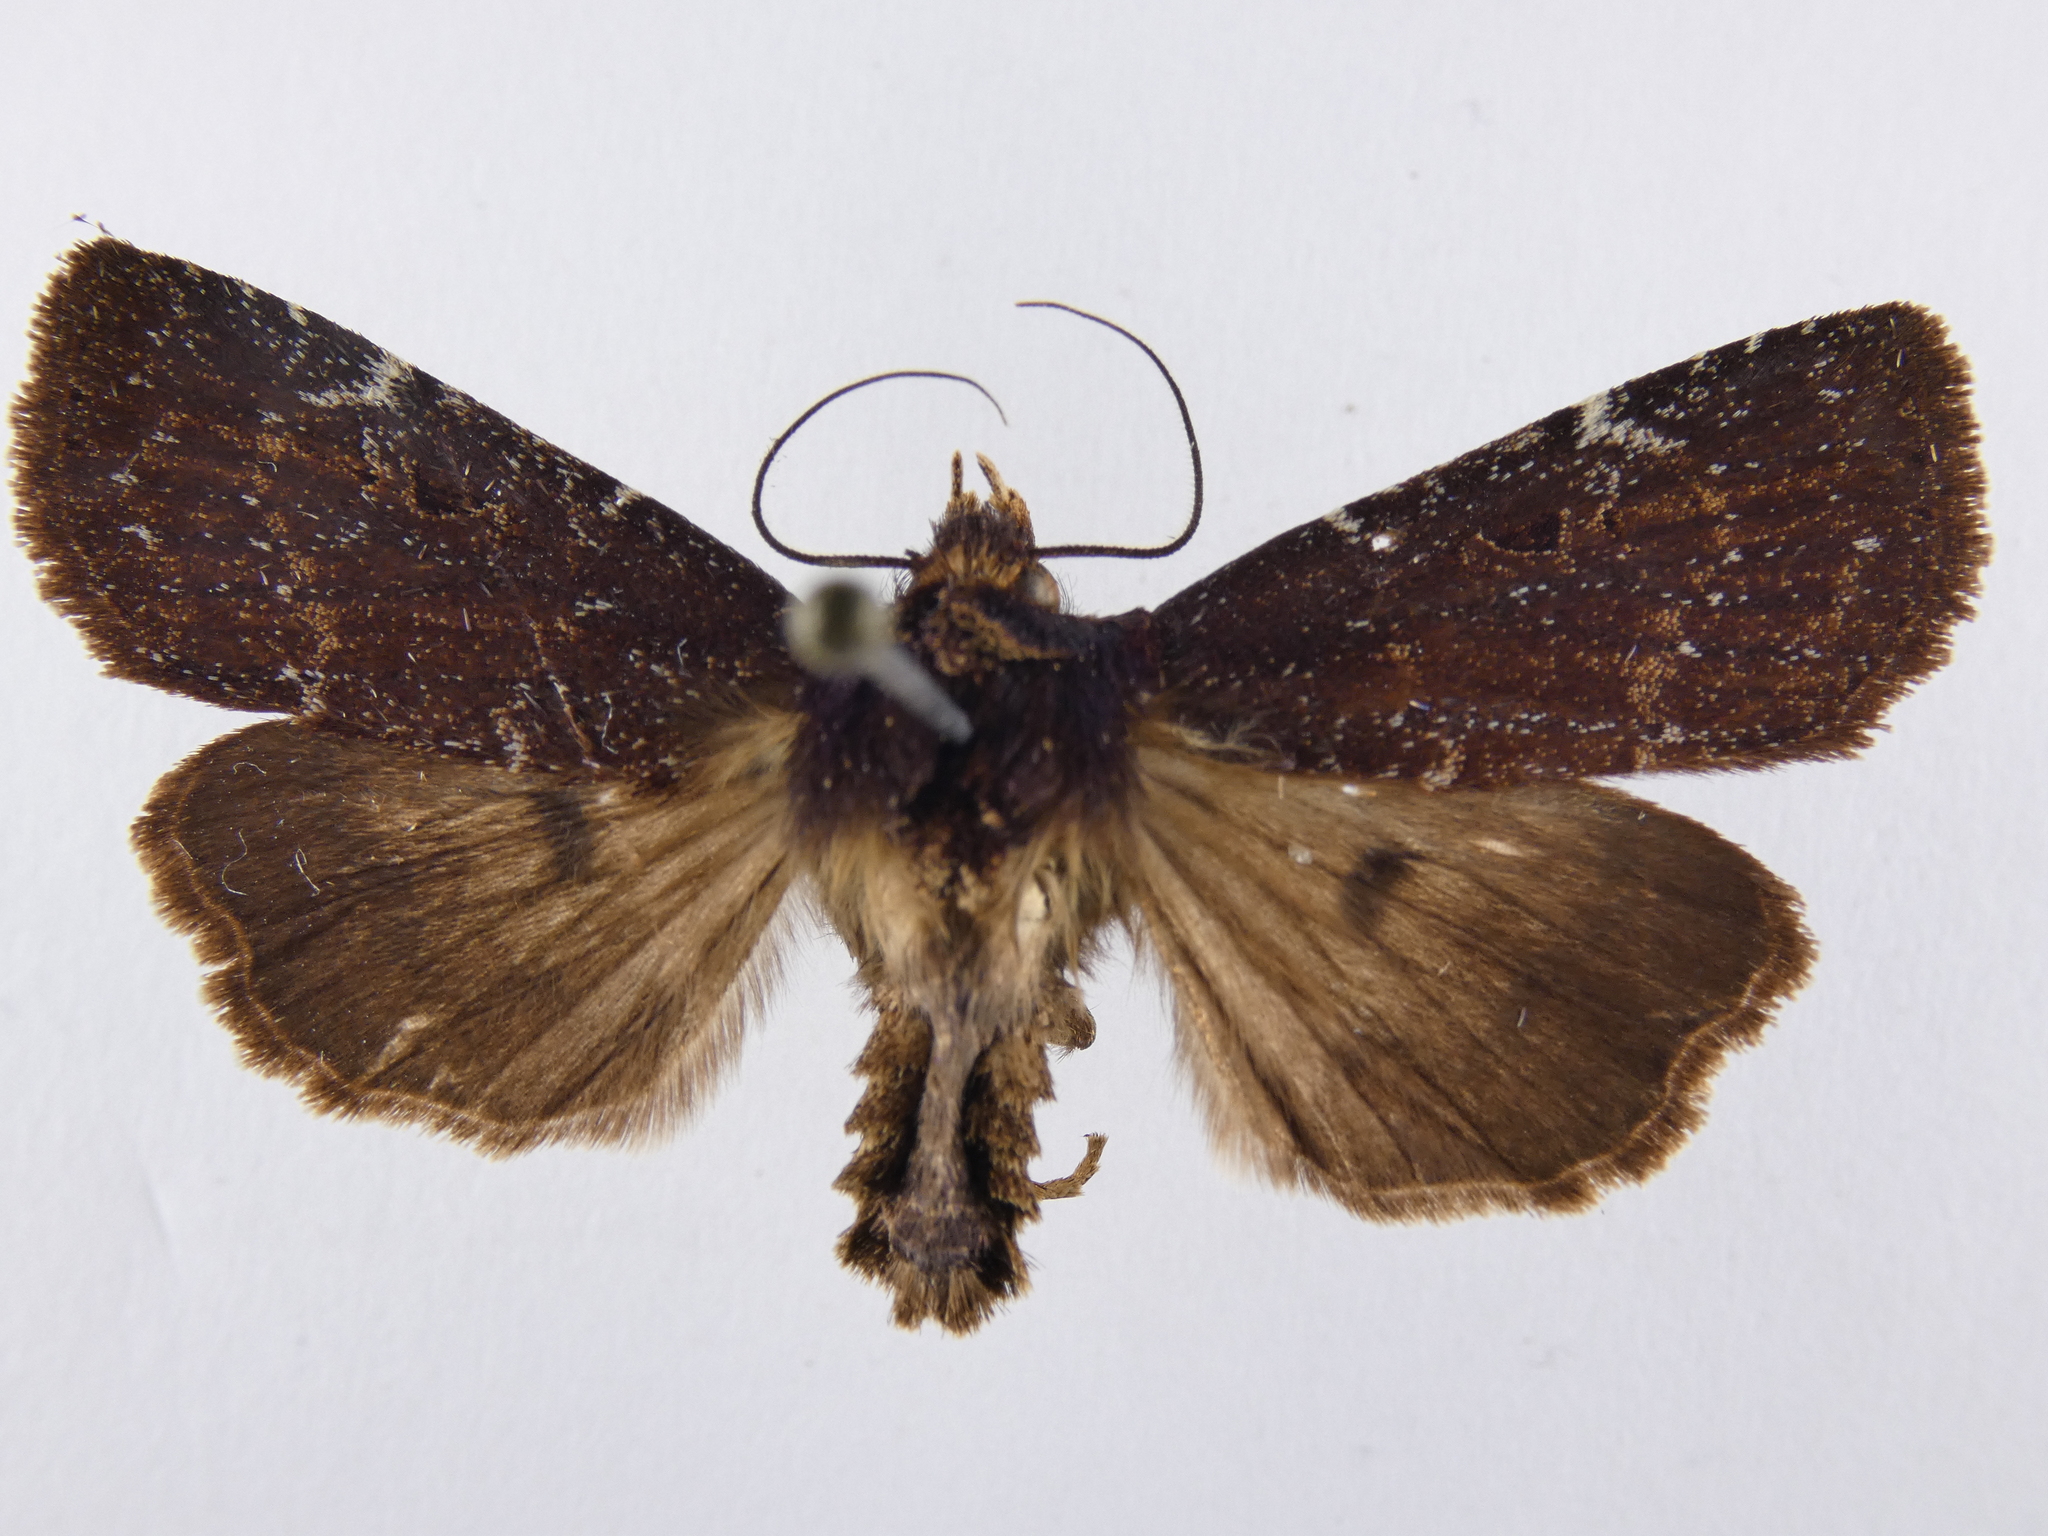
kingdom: Animalia
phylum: Arthropoda
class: Insecta
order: Lepidoptera
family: Noctuidae
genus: Austramathes
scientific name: Austramathes purpurea
